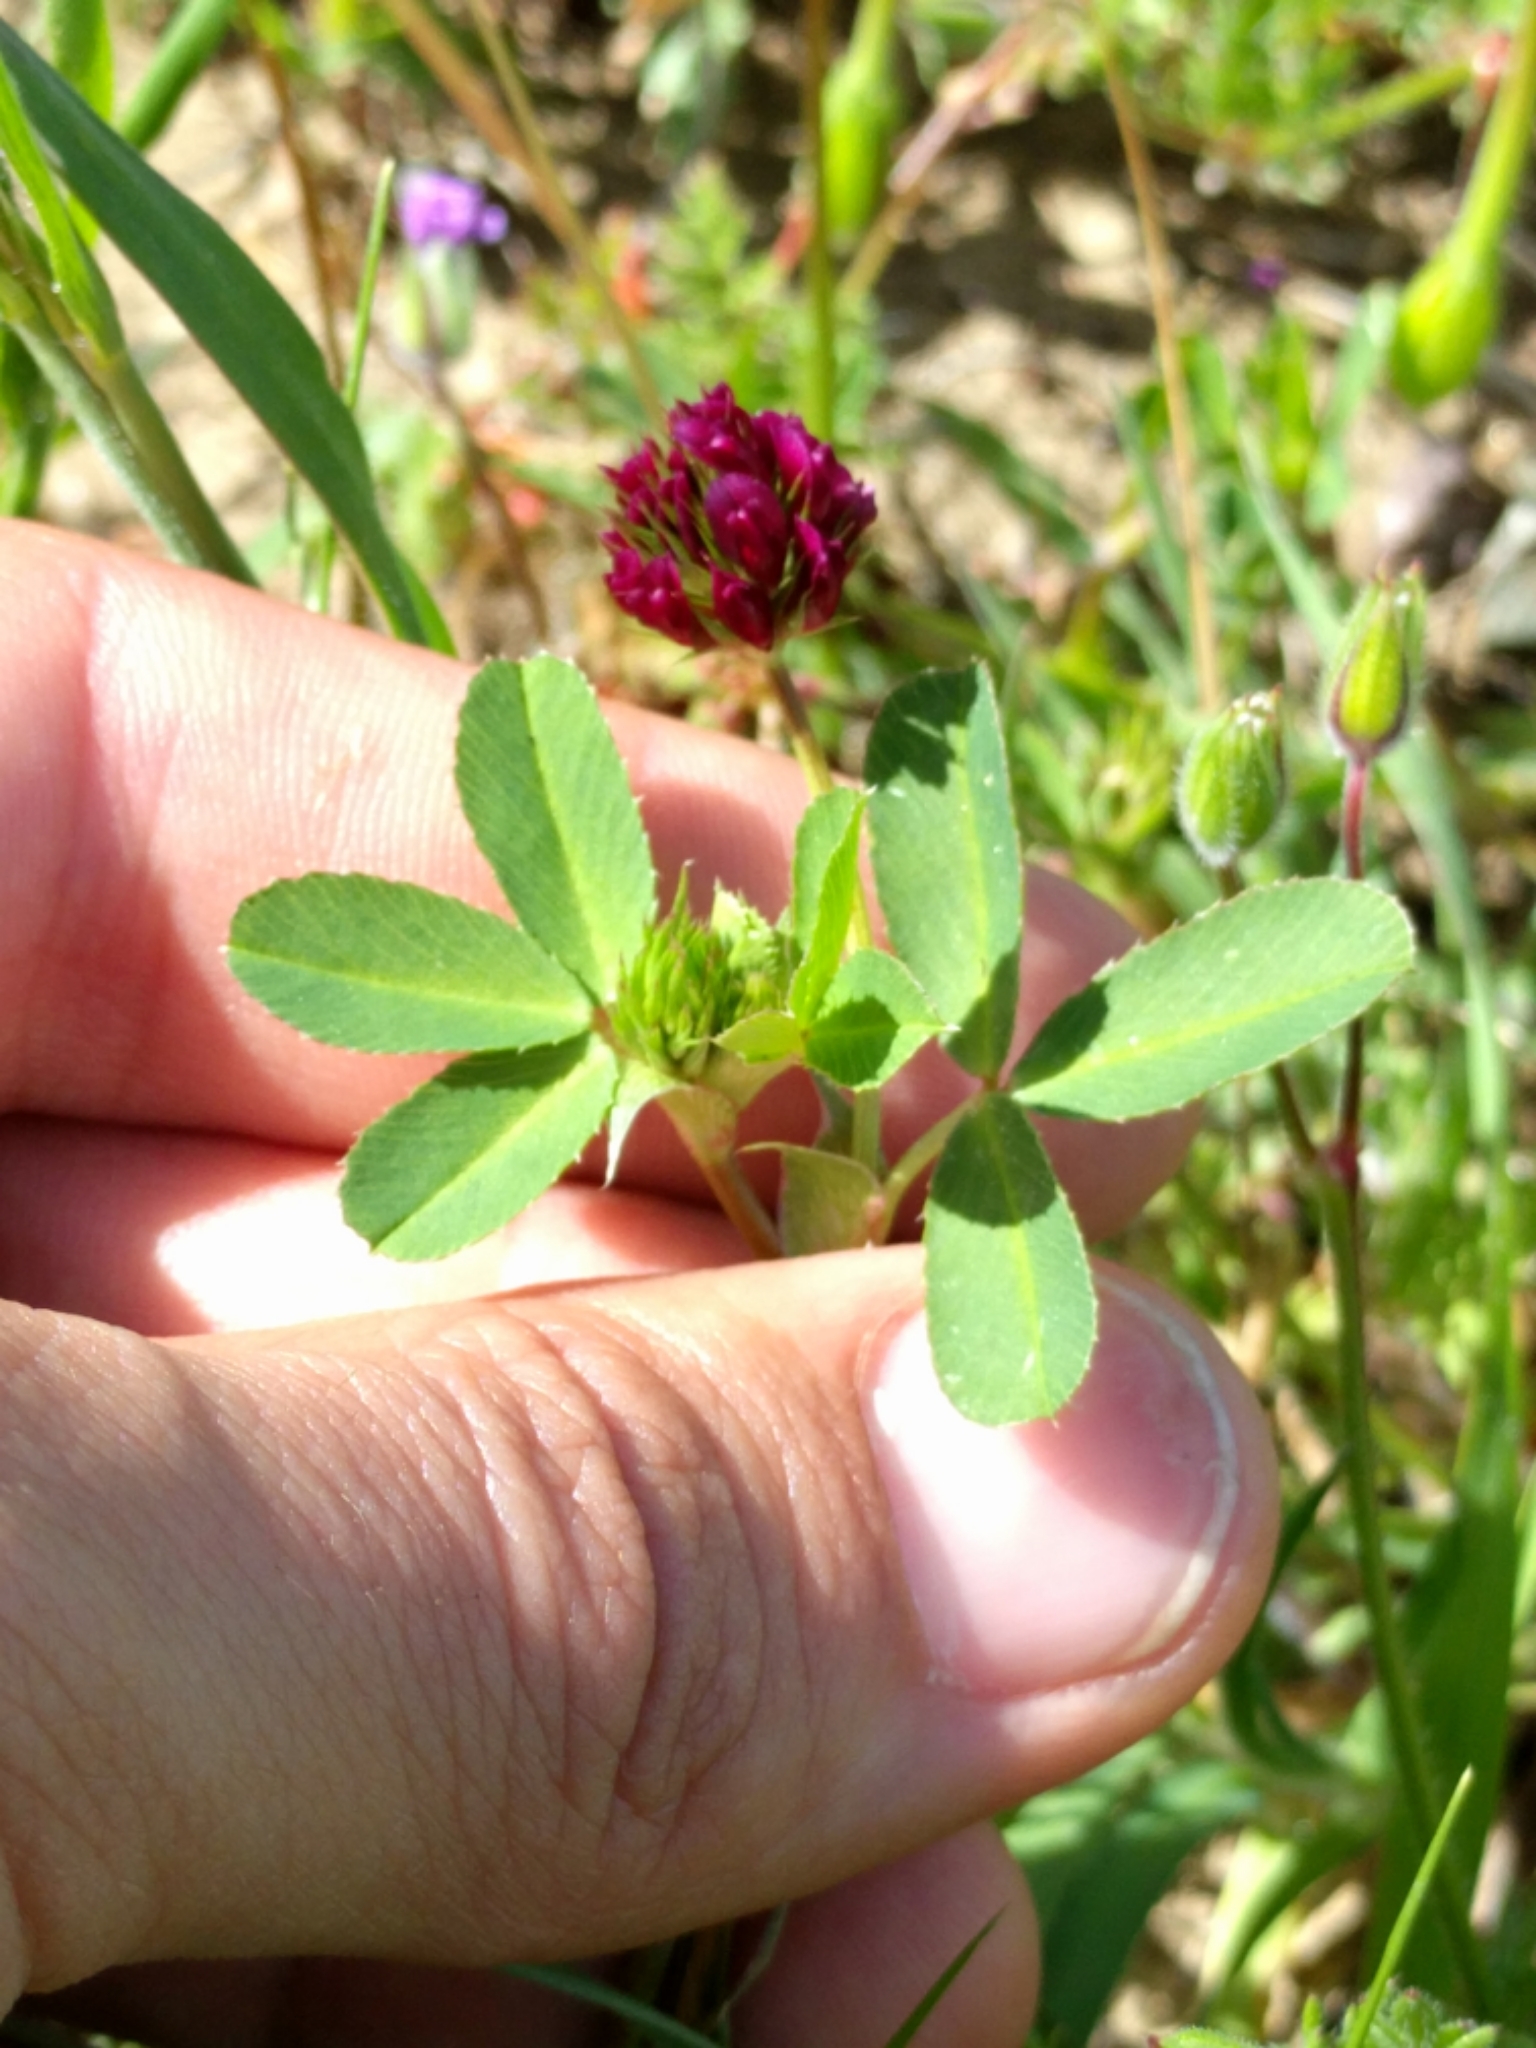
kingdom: Plantae
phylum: Tracheophyta
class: Magnoliopsida
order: Fabales
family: Fabaceae
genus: Trifolium
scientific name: Trifolium gracilentum
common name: Slender clover
